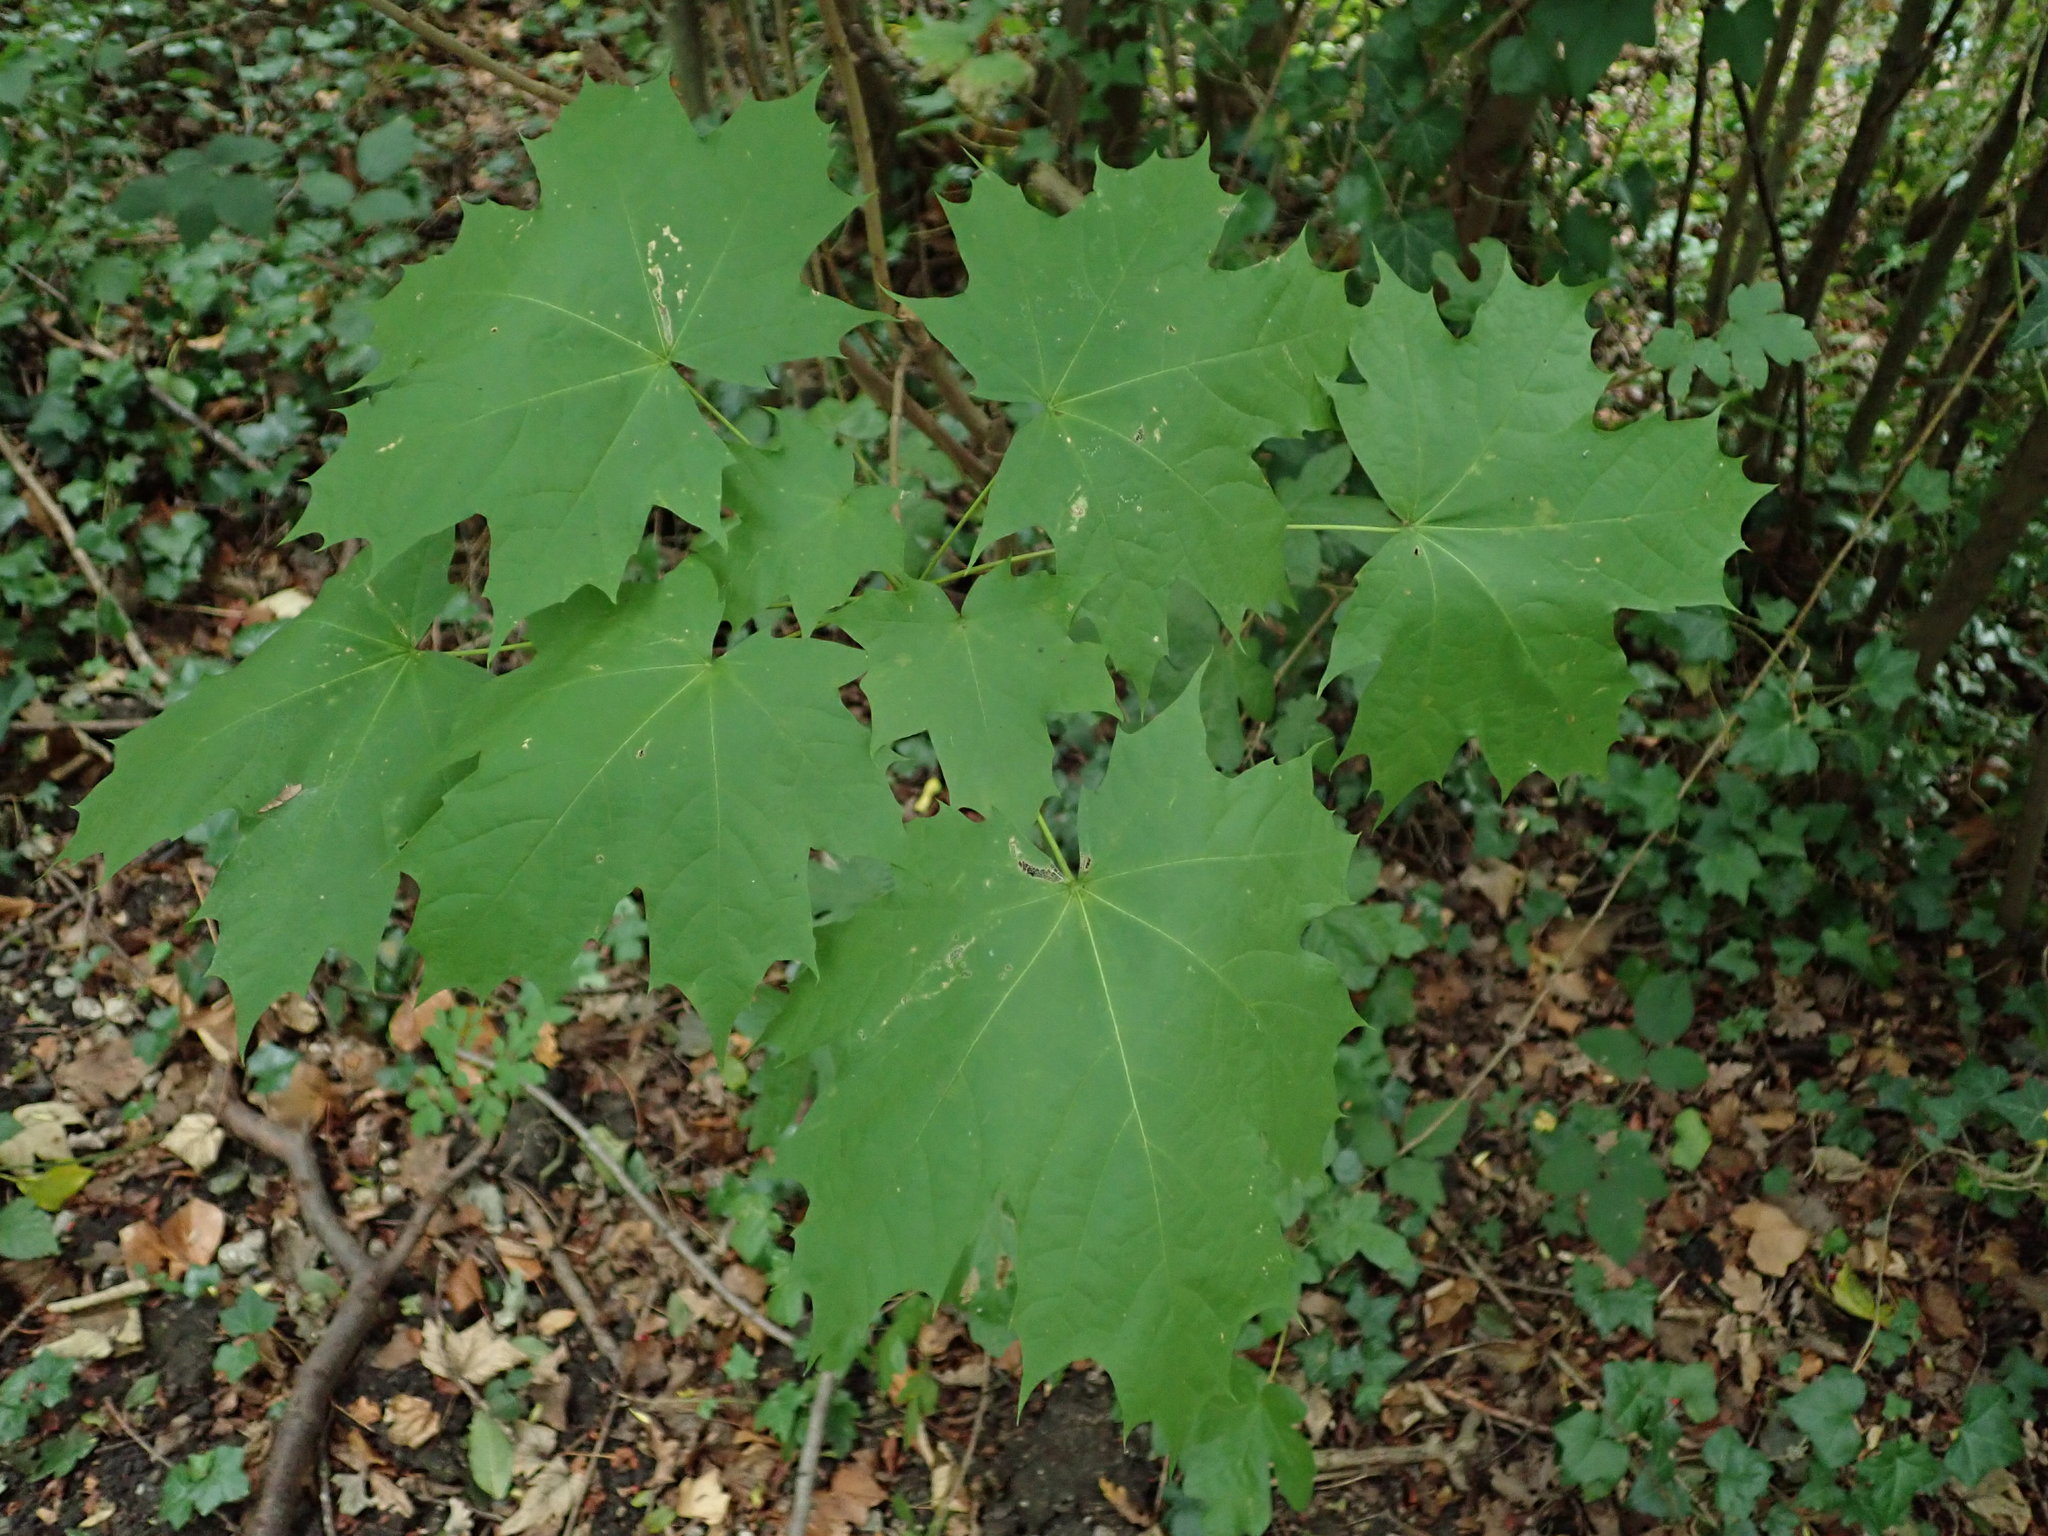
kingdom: Plantae
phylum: Tracheophyta
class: Magnoliopsida
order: Sapindales
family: Sapindaceae
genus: Acer
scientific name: Acer platanoides
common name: Norway maple
